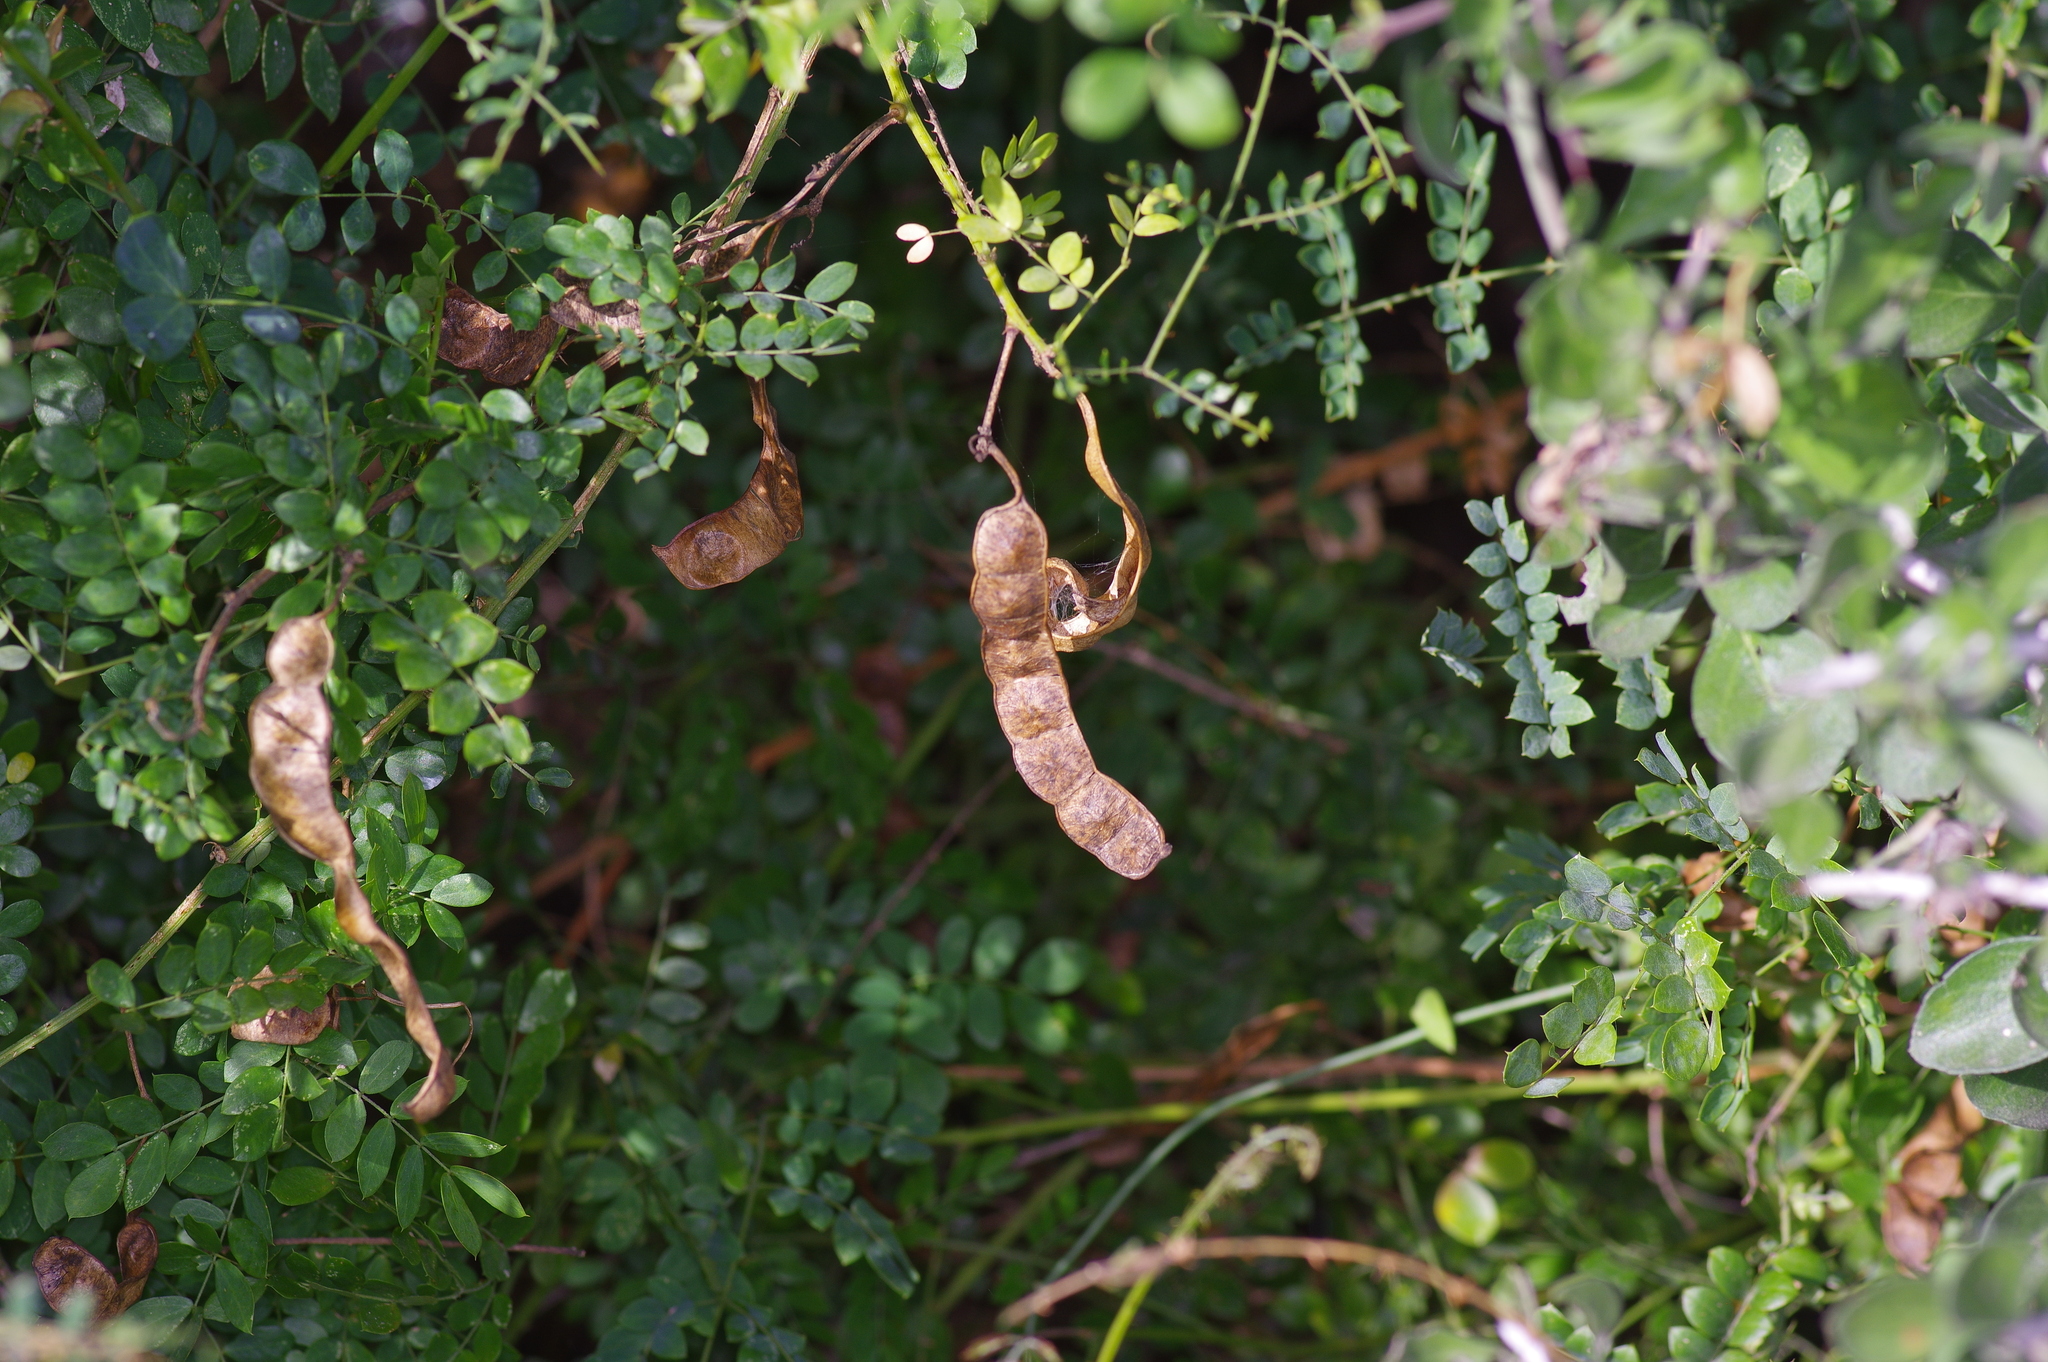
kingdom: Plantae
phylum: Tracheophyta
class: Magnoliopsida
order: Fabales
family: Fabaceae
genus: Mimosa
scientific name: Mimosa malacophylla
